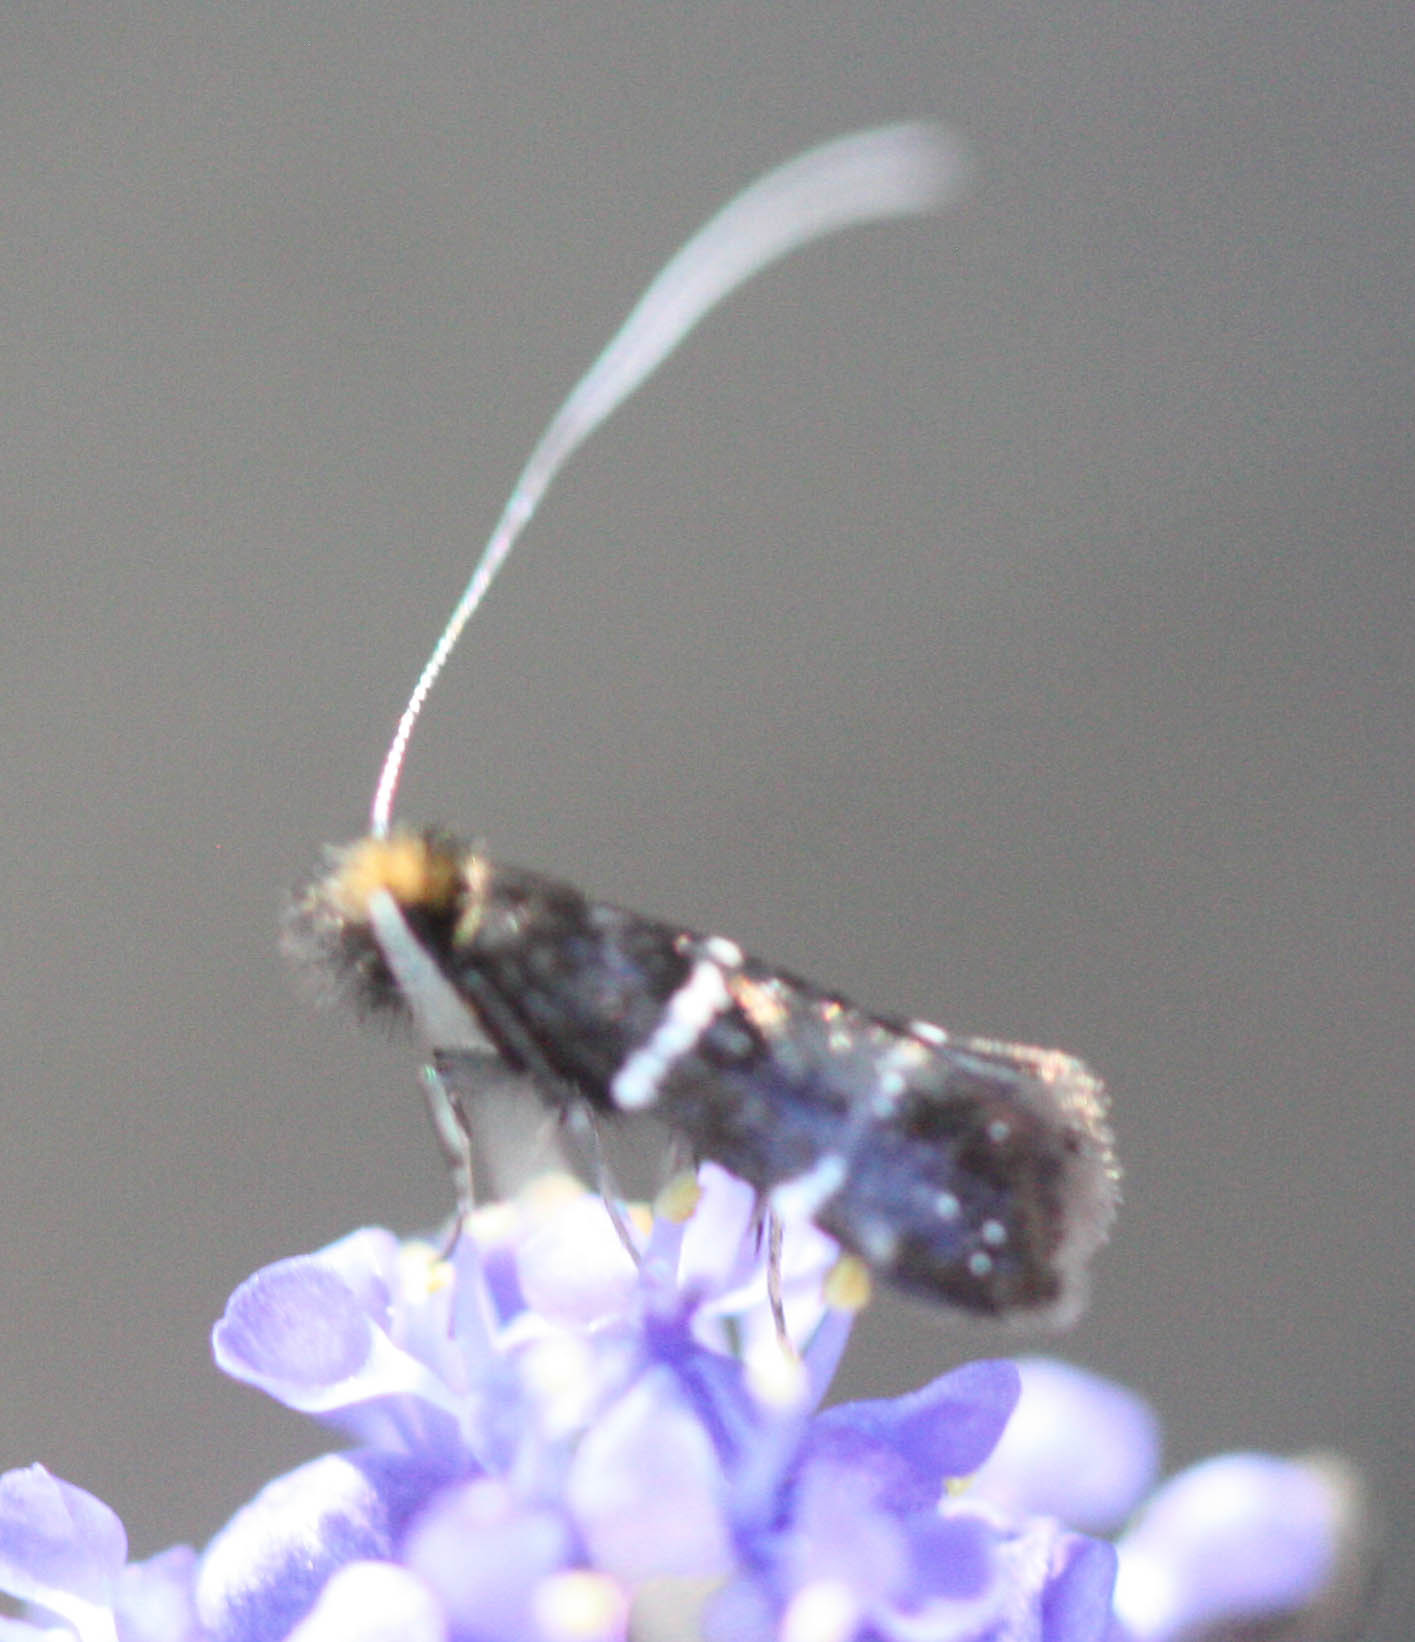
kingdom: Animalia
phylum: Arthropoda
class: Insecta
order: Lepidoptera
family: Adelidae
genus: Adela
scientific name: Adela septentrionella
